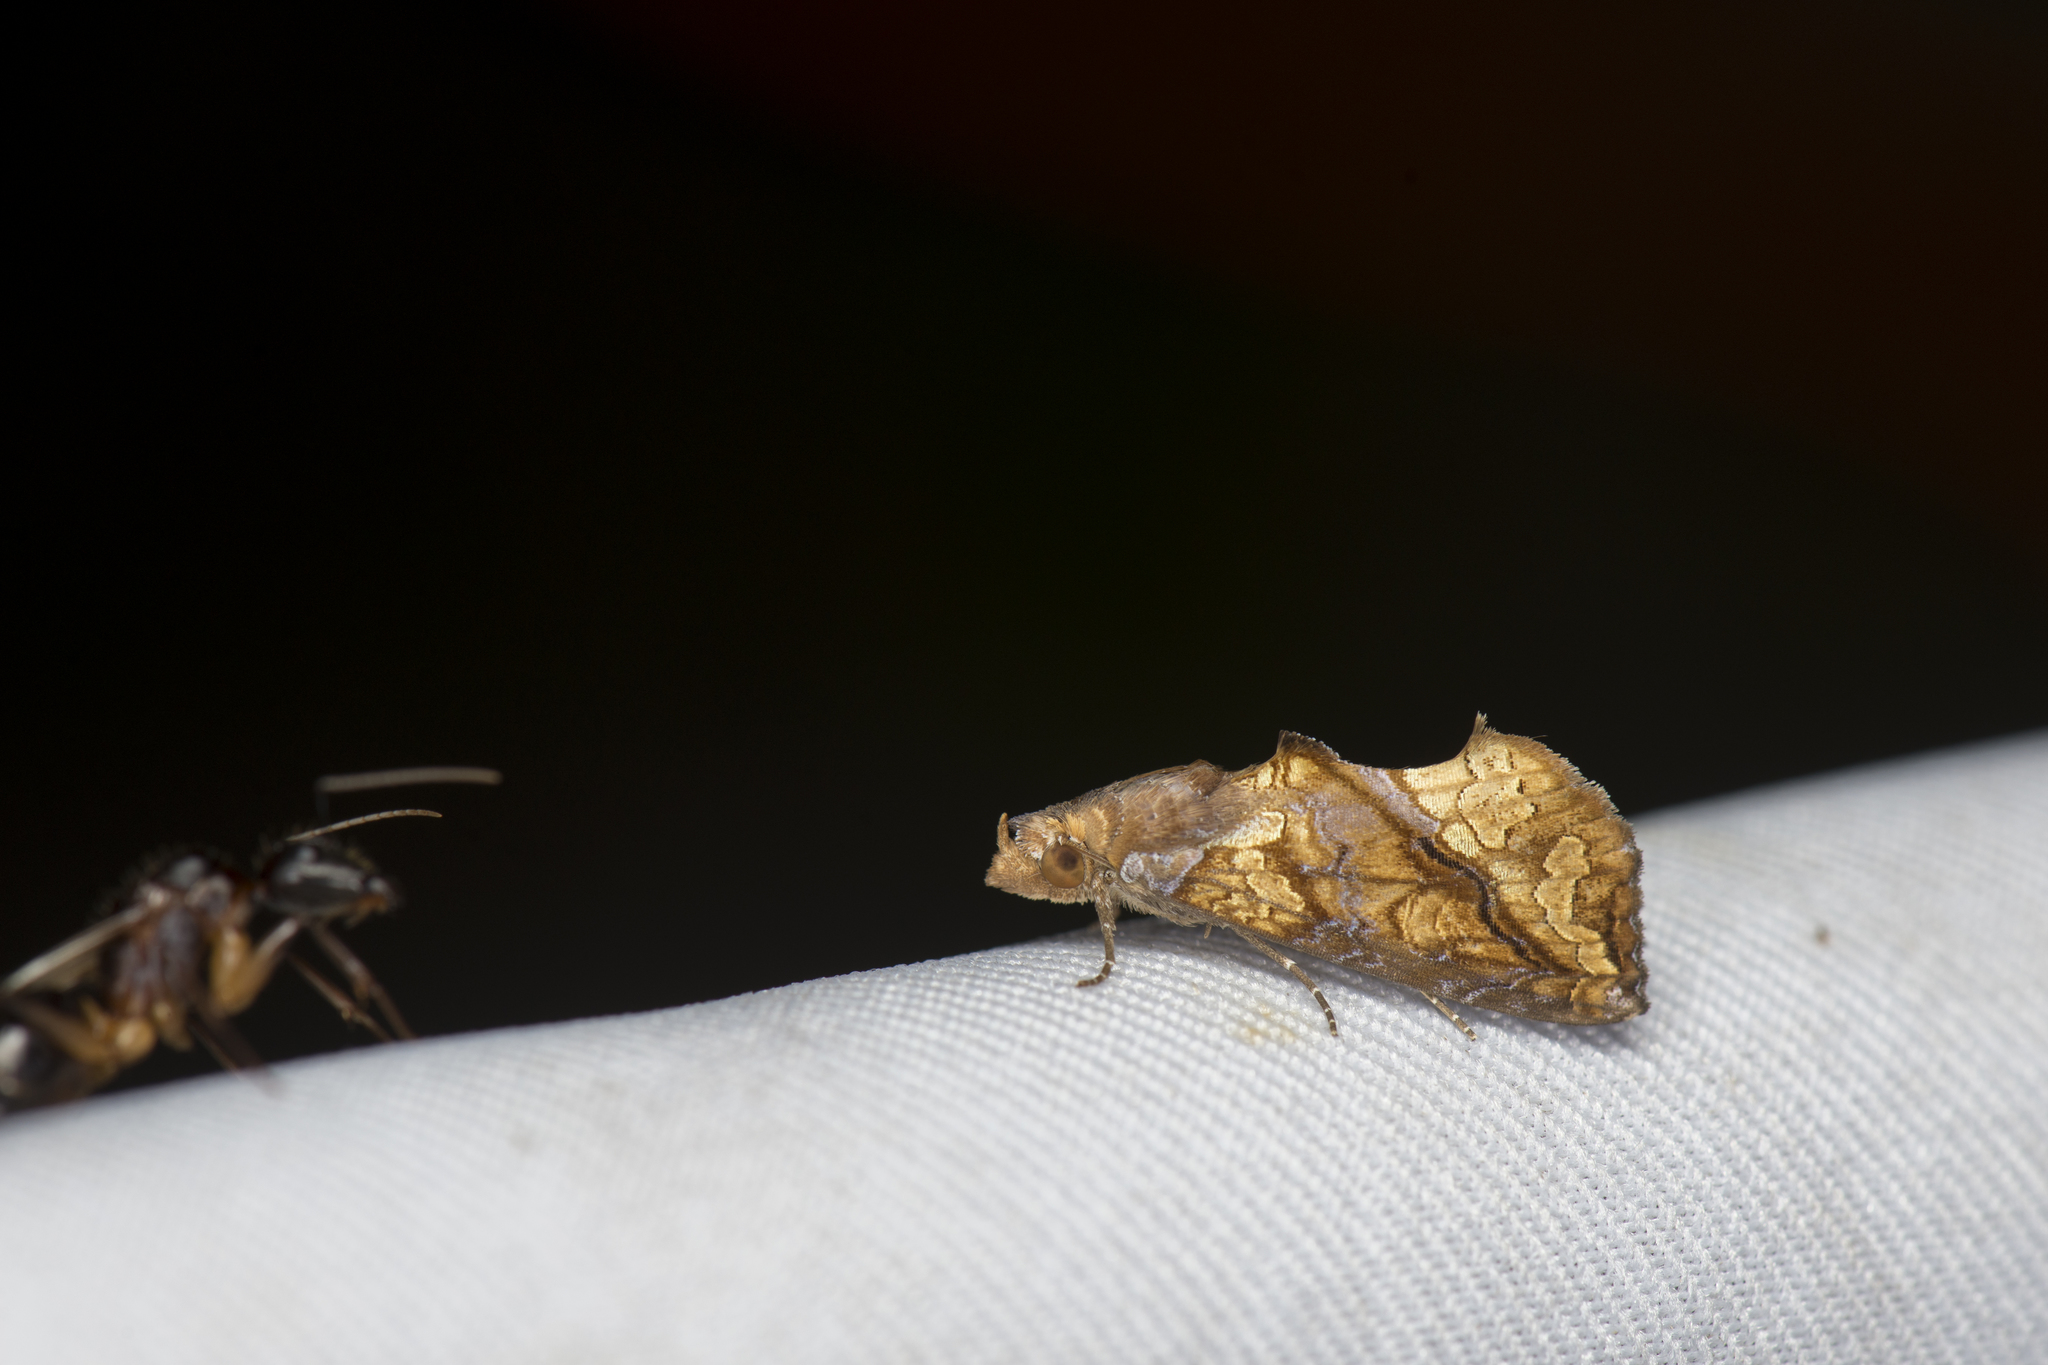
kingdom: Animalia
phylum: Arthropoda
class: Insecta
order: Lepidoptera
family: Erebidae
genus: Plusiodonta
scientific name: Plusiodonta coelonota
